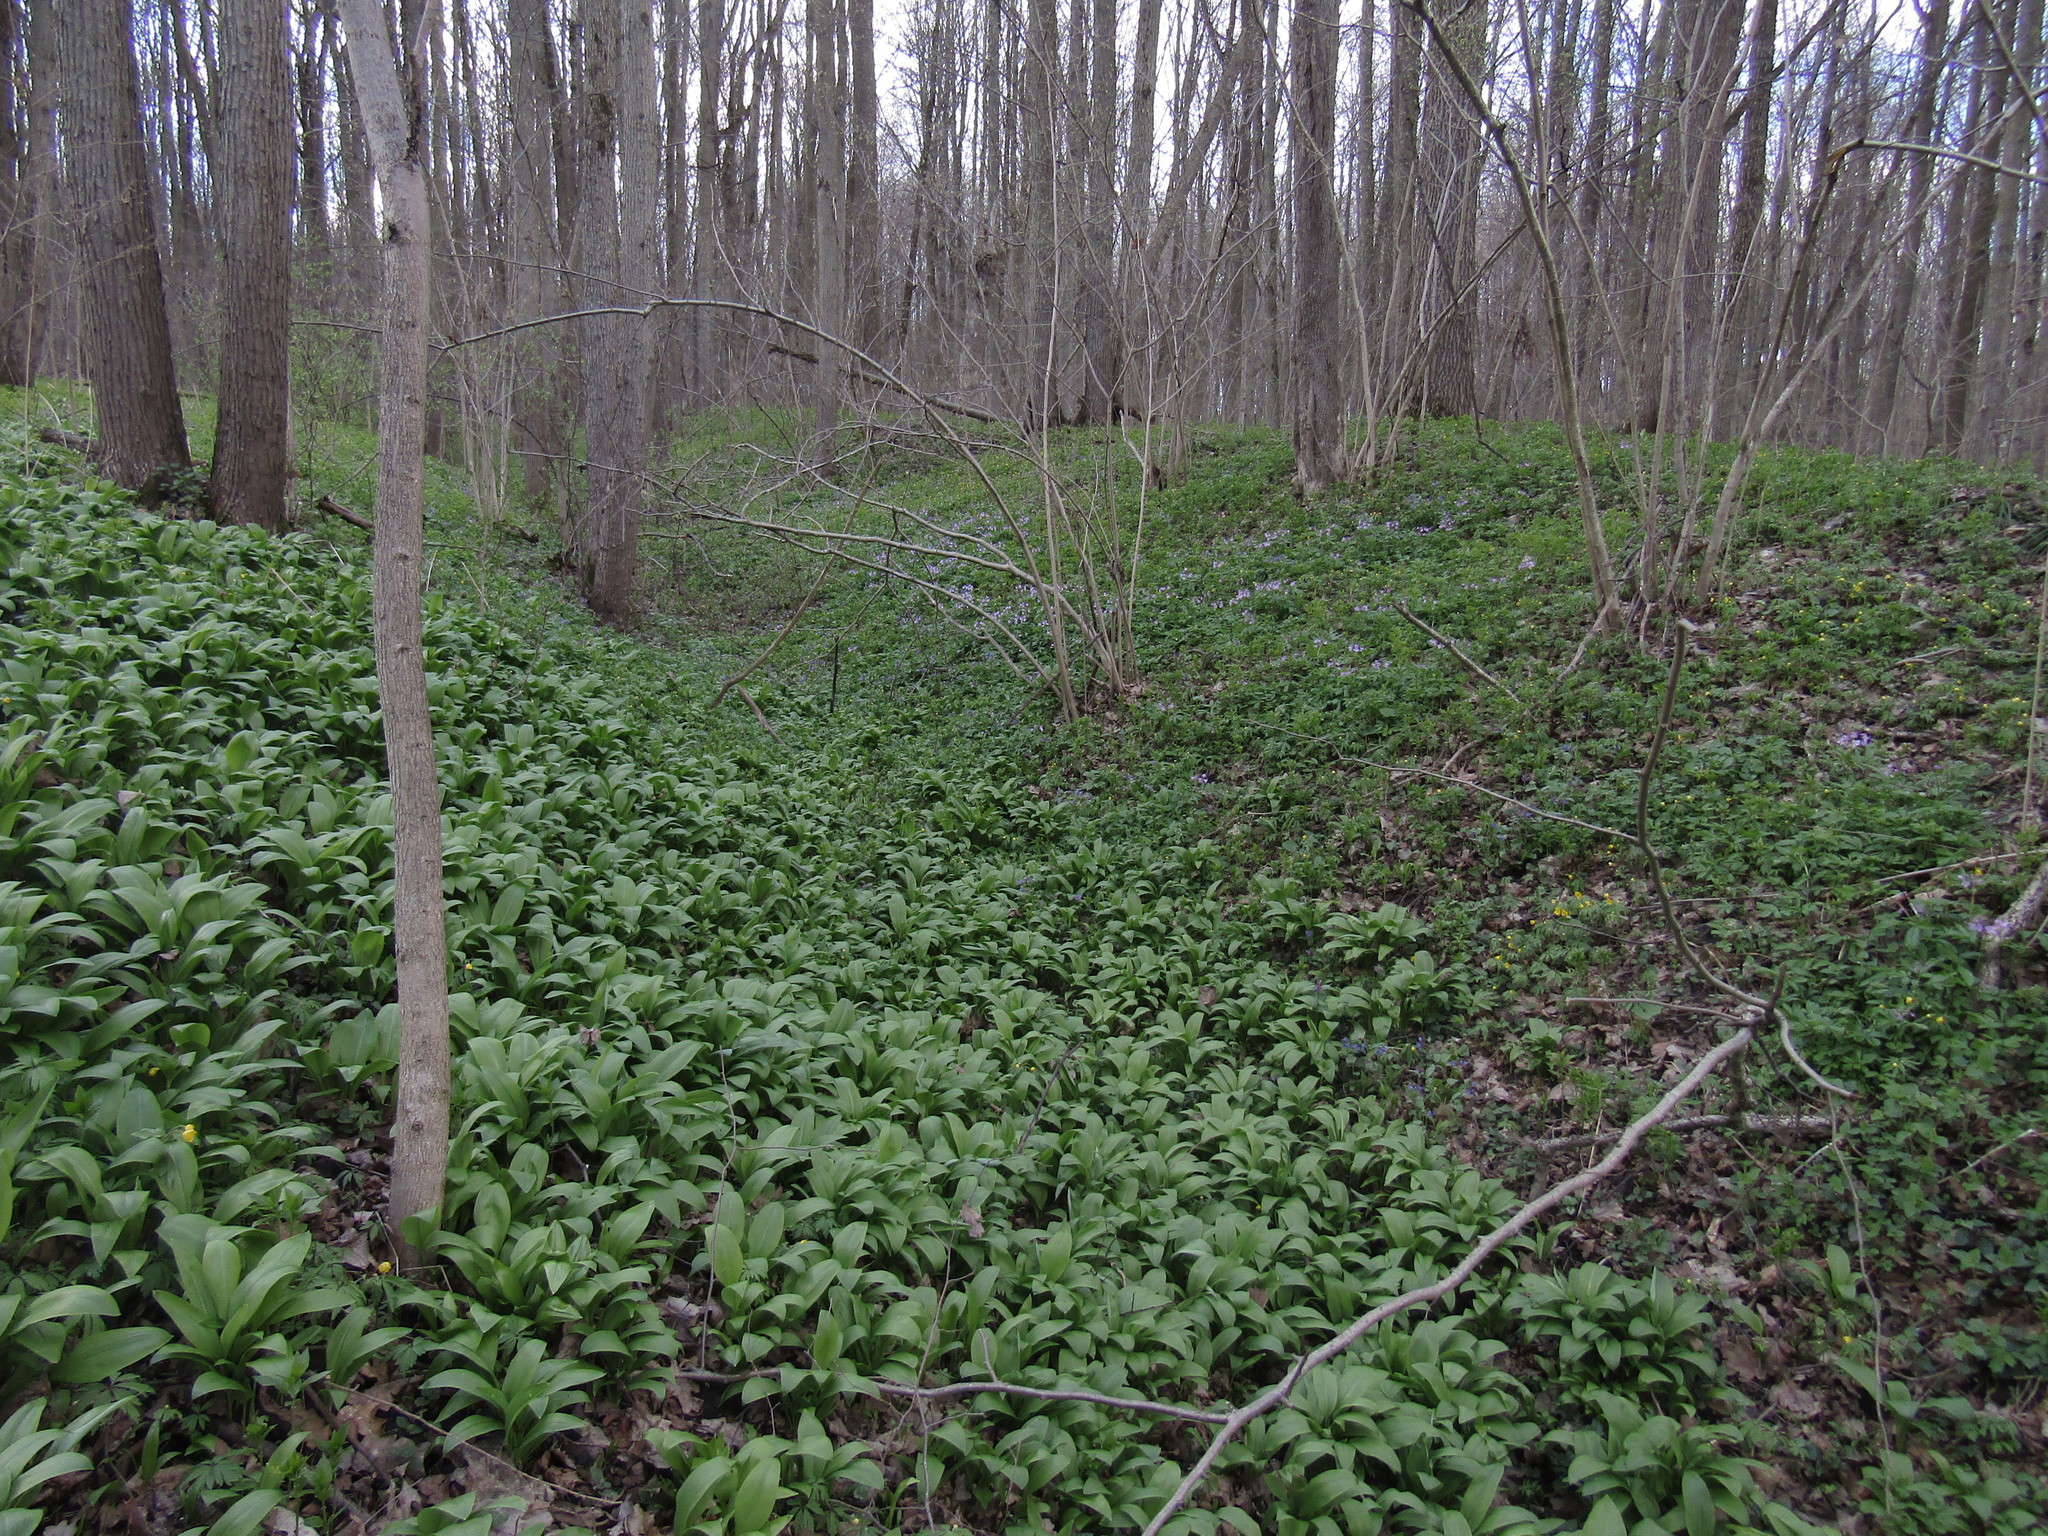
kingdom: Plantae
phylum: Tracheophyta
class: Liliopsida
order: Asparagales
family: Amaryllidaceae
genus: Allium
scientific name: Allium ursinum
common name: Ramsons
